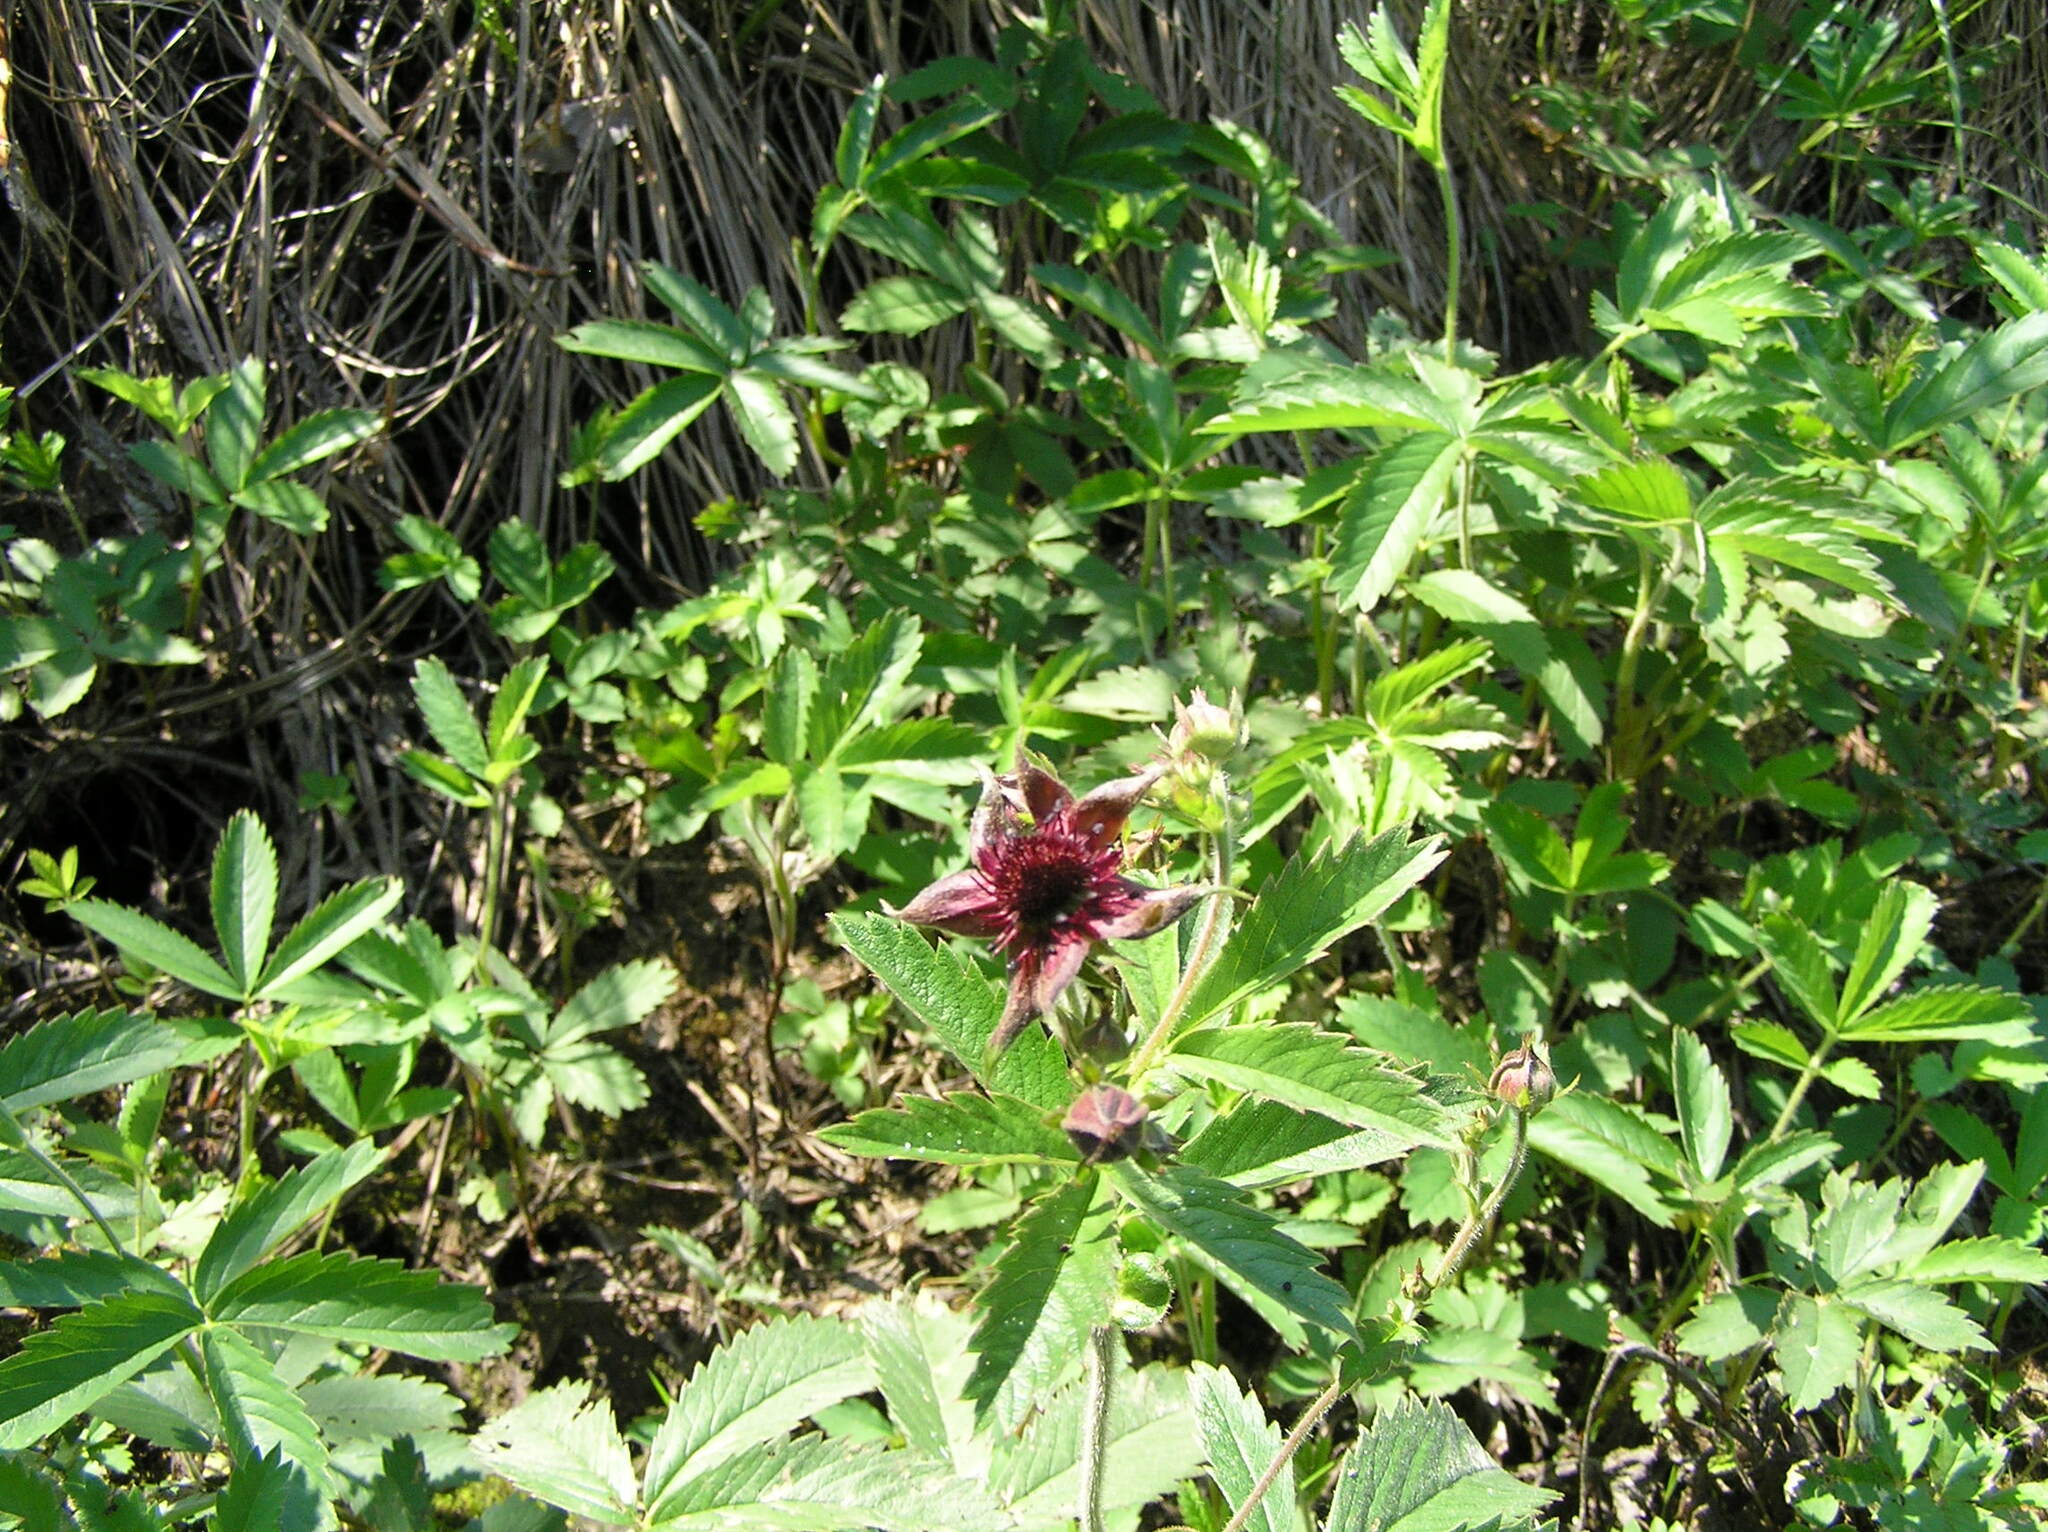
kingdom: Plantae
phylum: Tracheophyta
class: Magnoliopsida
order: Rosales
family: Rosaceae
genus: Comarum
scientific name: Comarum palustre
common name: Marsh cinquefoil
